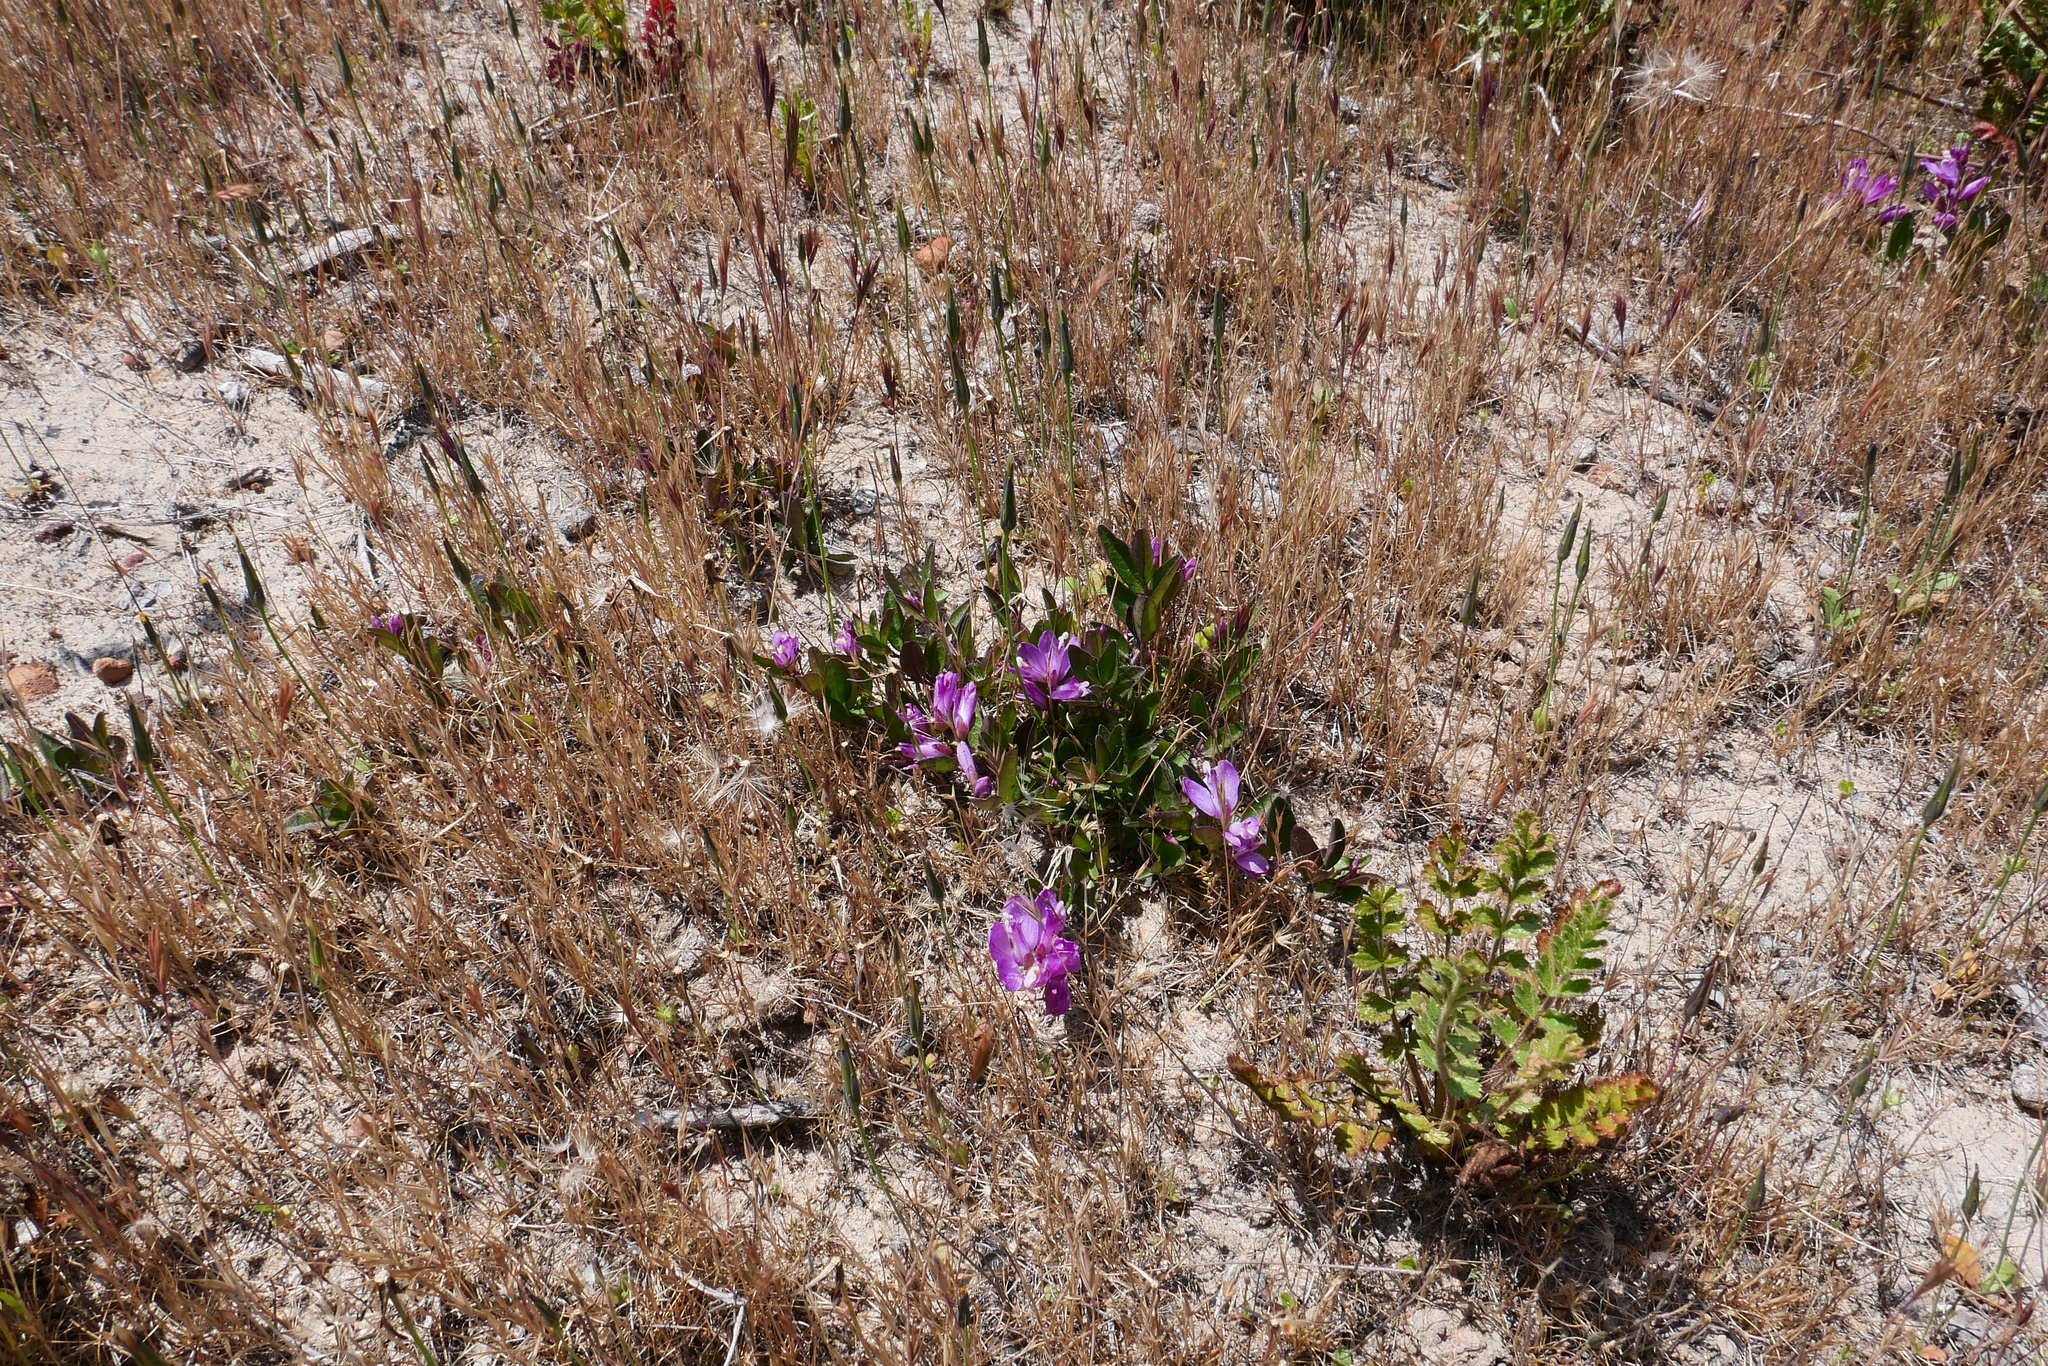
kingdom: Plantae
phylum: Tracheophyta
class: Magnoliopsida
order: Fabales
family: Polygalaceae
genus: Rhinotropis
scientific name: Rhinotropis californica
